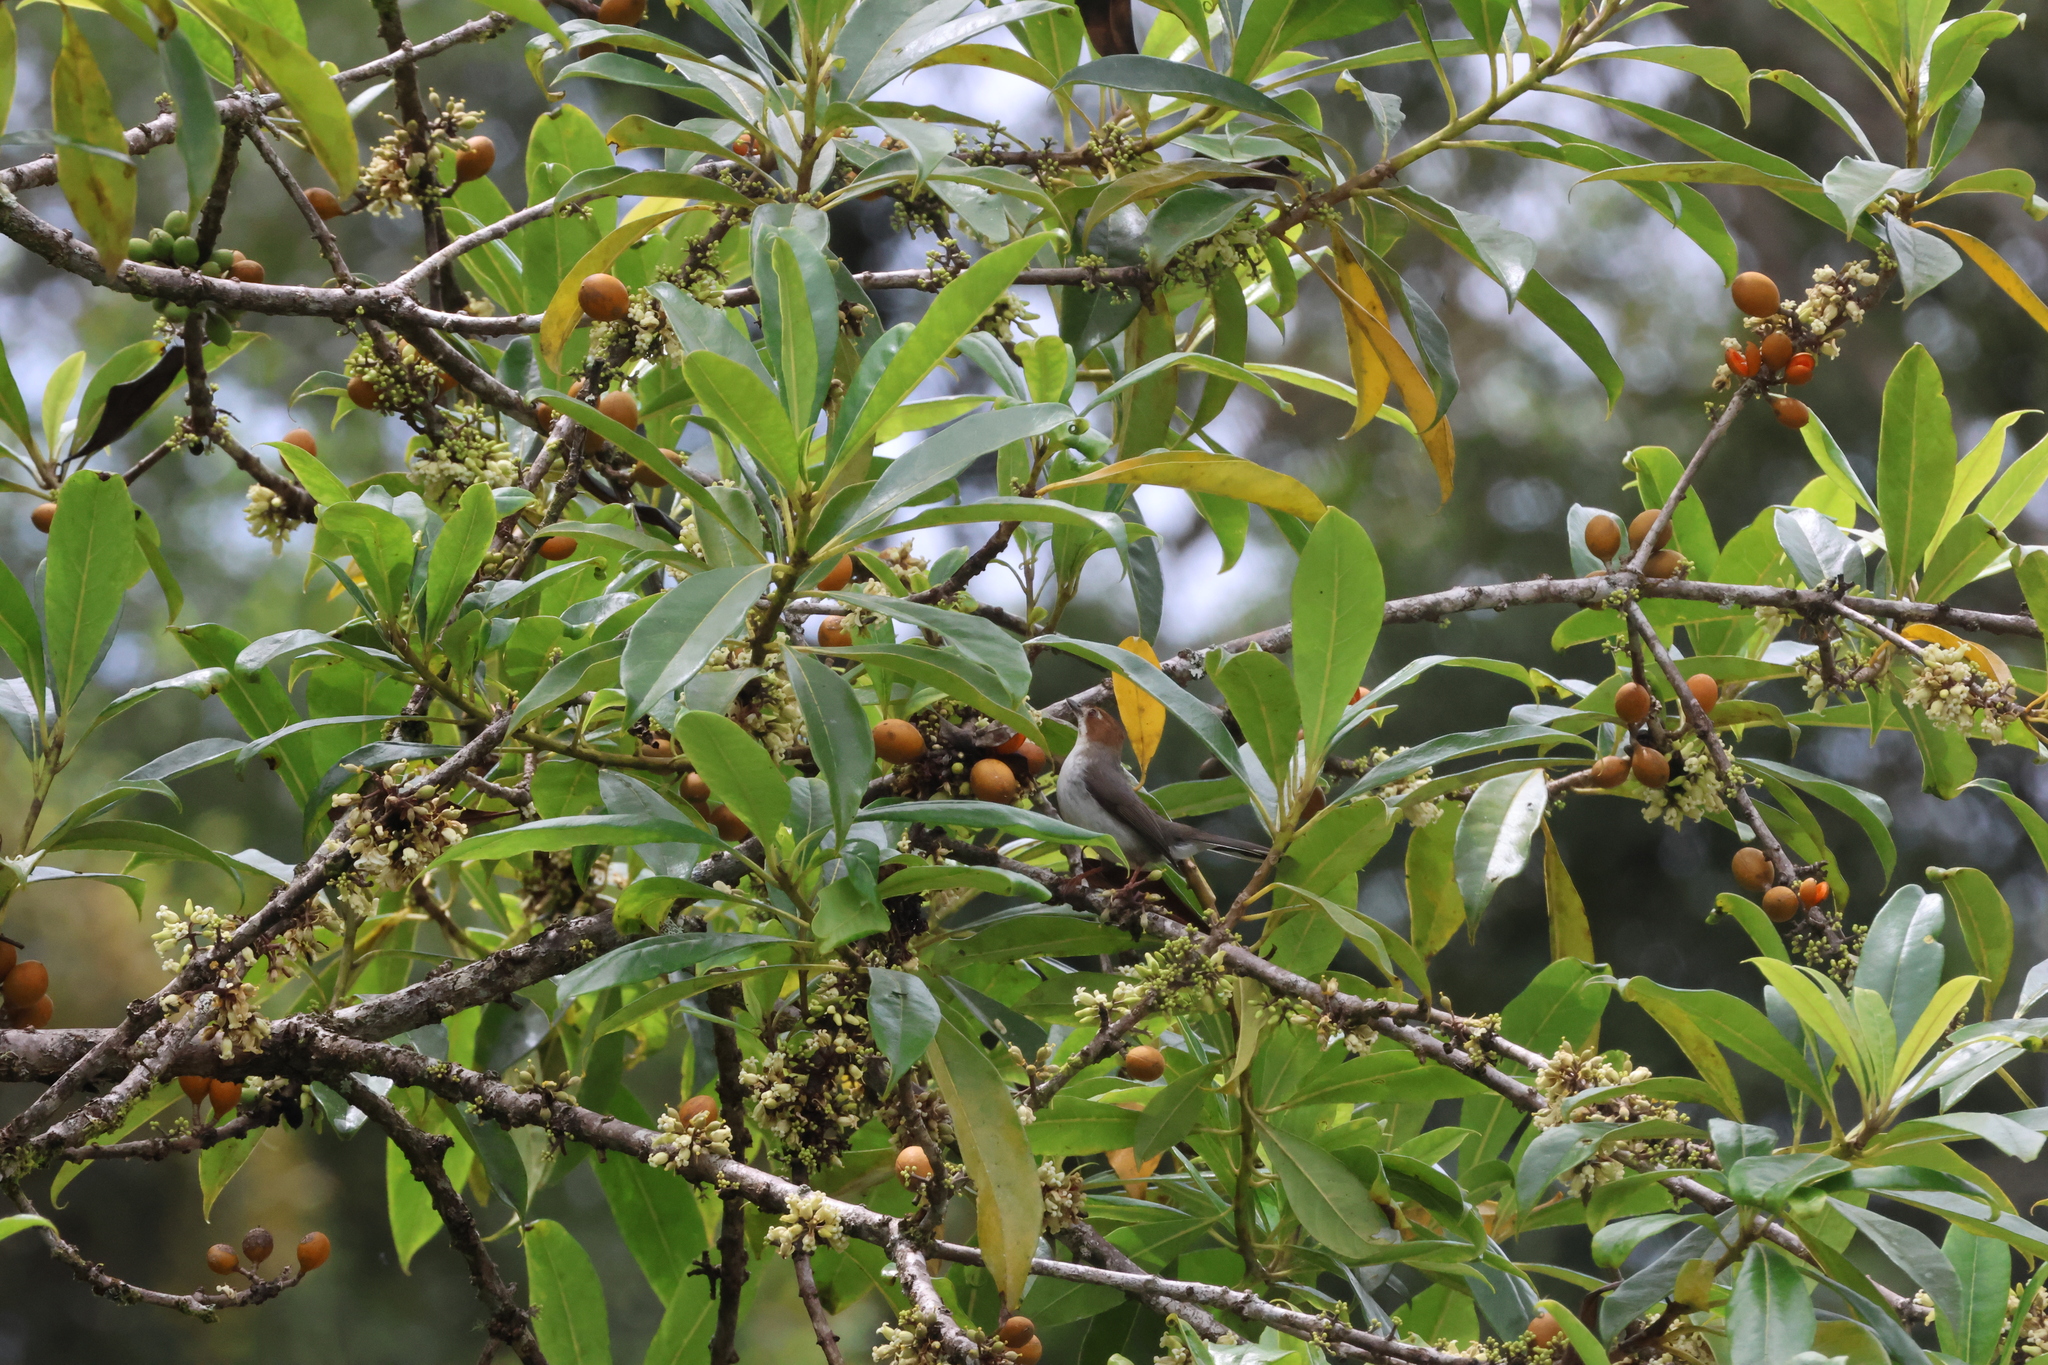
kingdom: Animalia
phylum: Chordata
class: Aves
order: Passeriformes
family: Zosteropidae
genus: Staphida
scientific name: Staphida everetti
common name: Chestnut-crested yuhina
